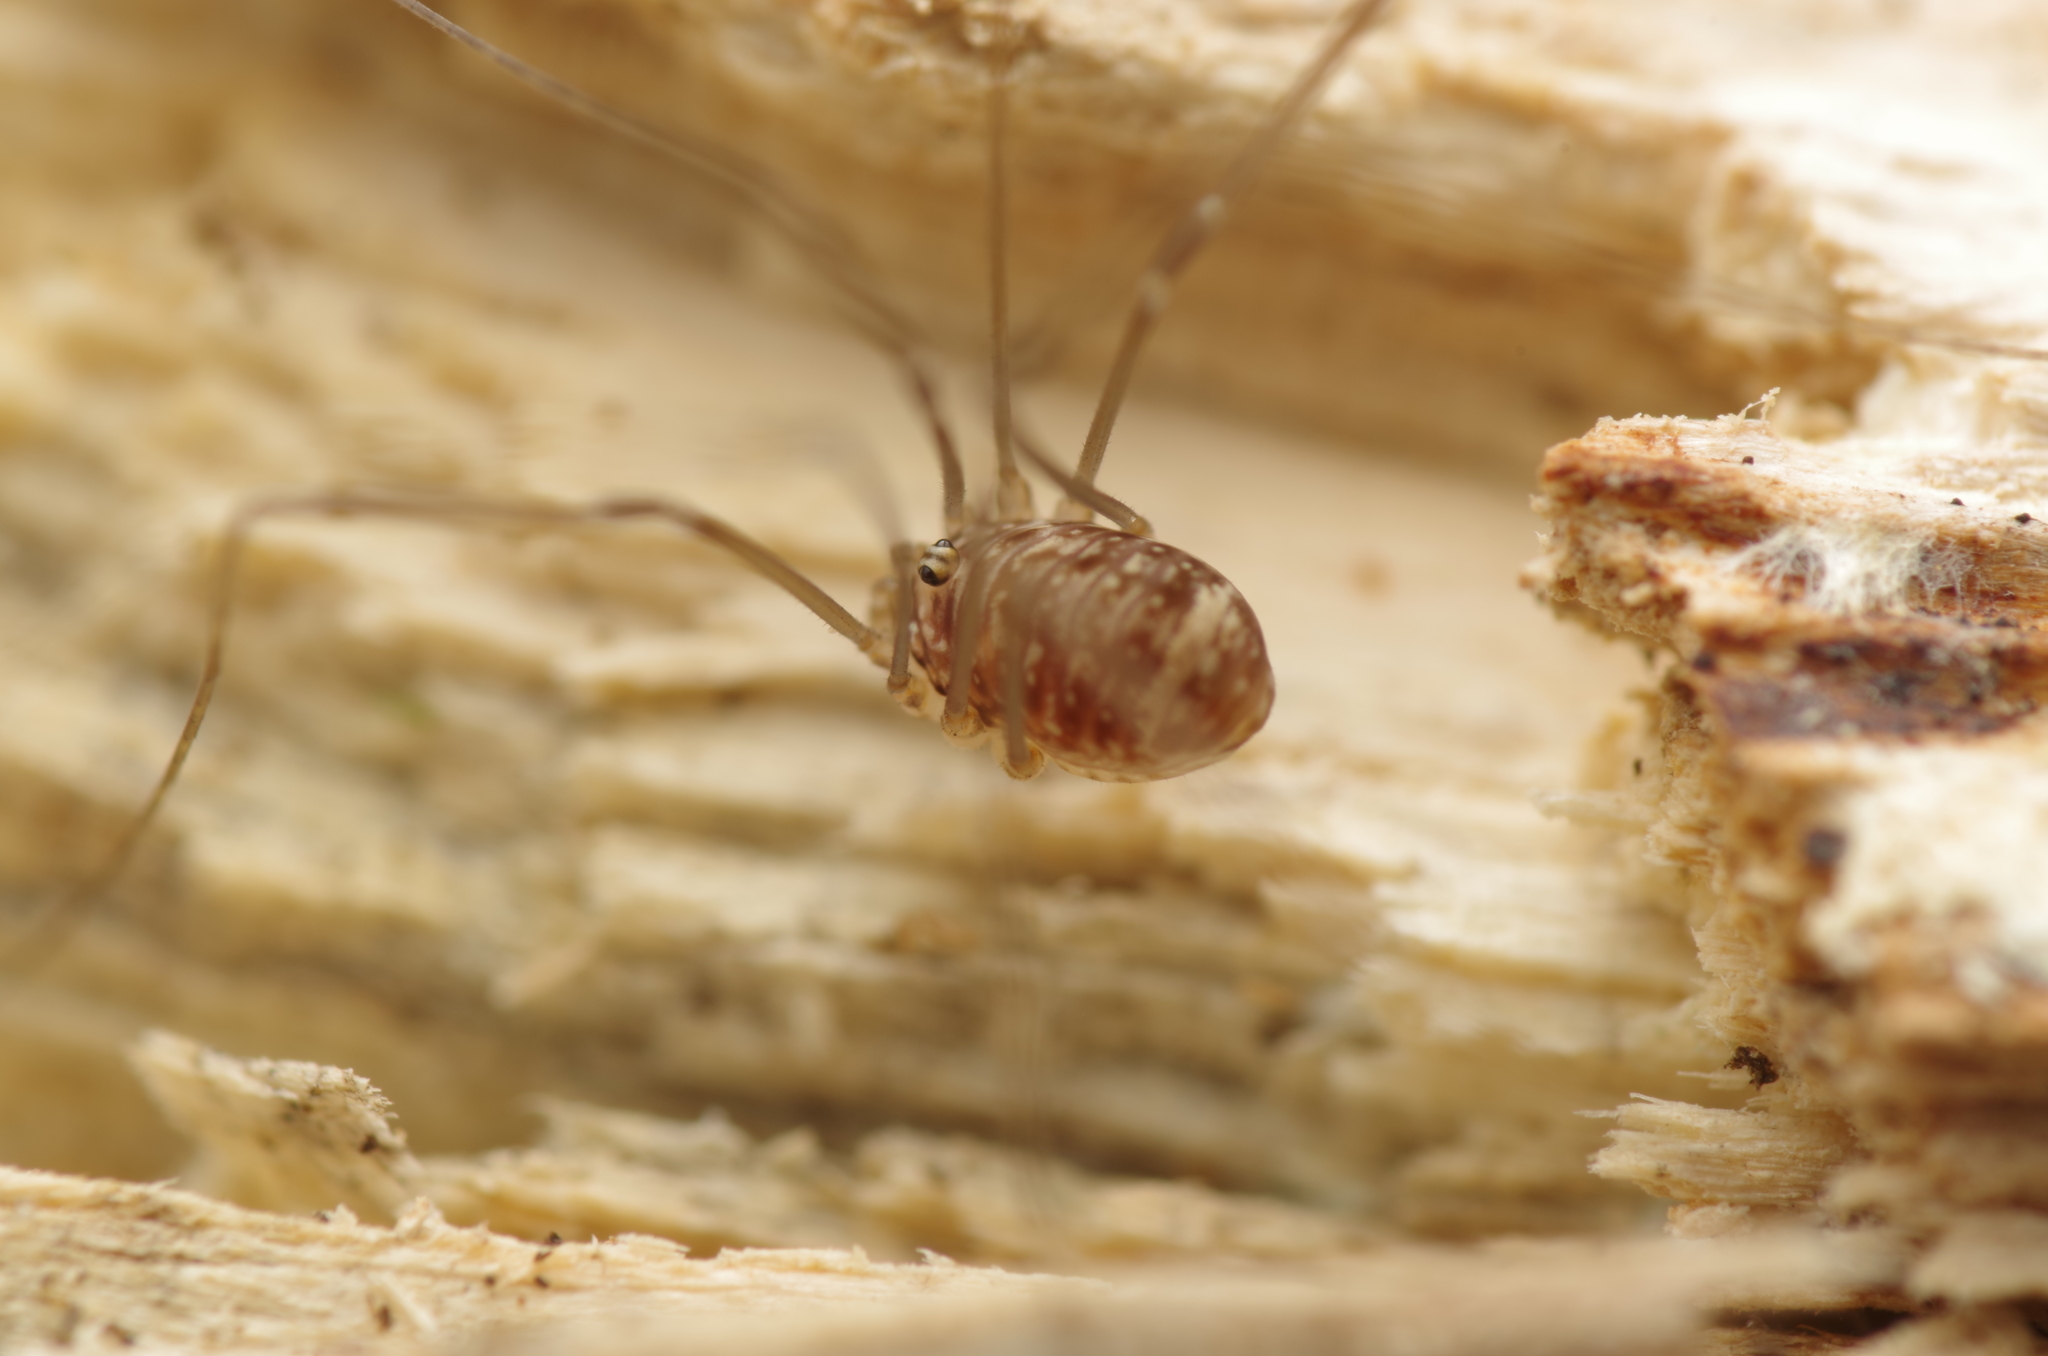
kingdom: Animalia
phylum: Arthropoda
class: Arachnida
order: Opiliones
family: Sclerosomatidae
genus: Leiobunum
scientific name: Leiobunum blackwalli
